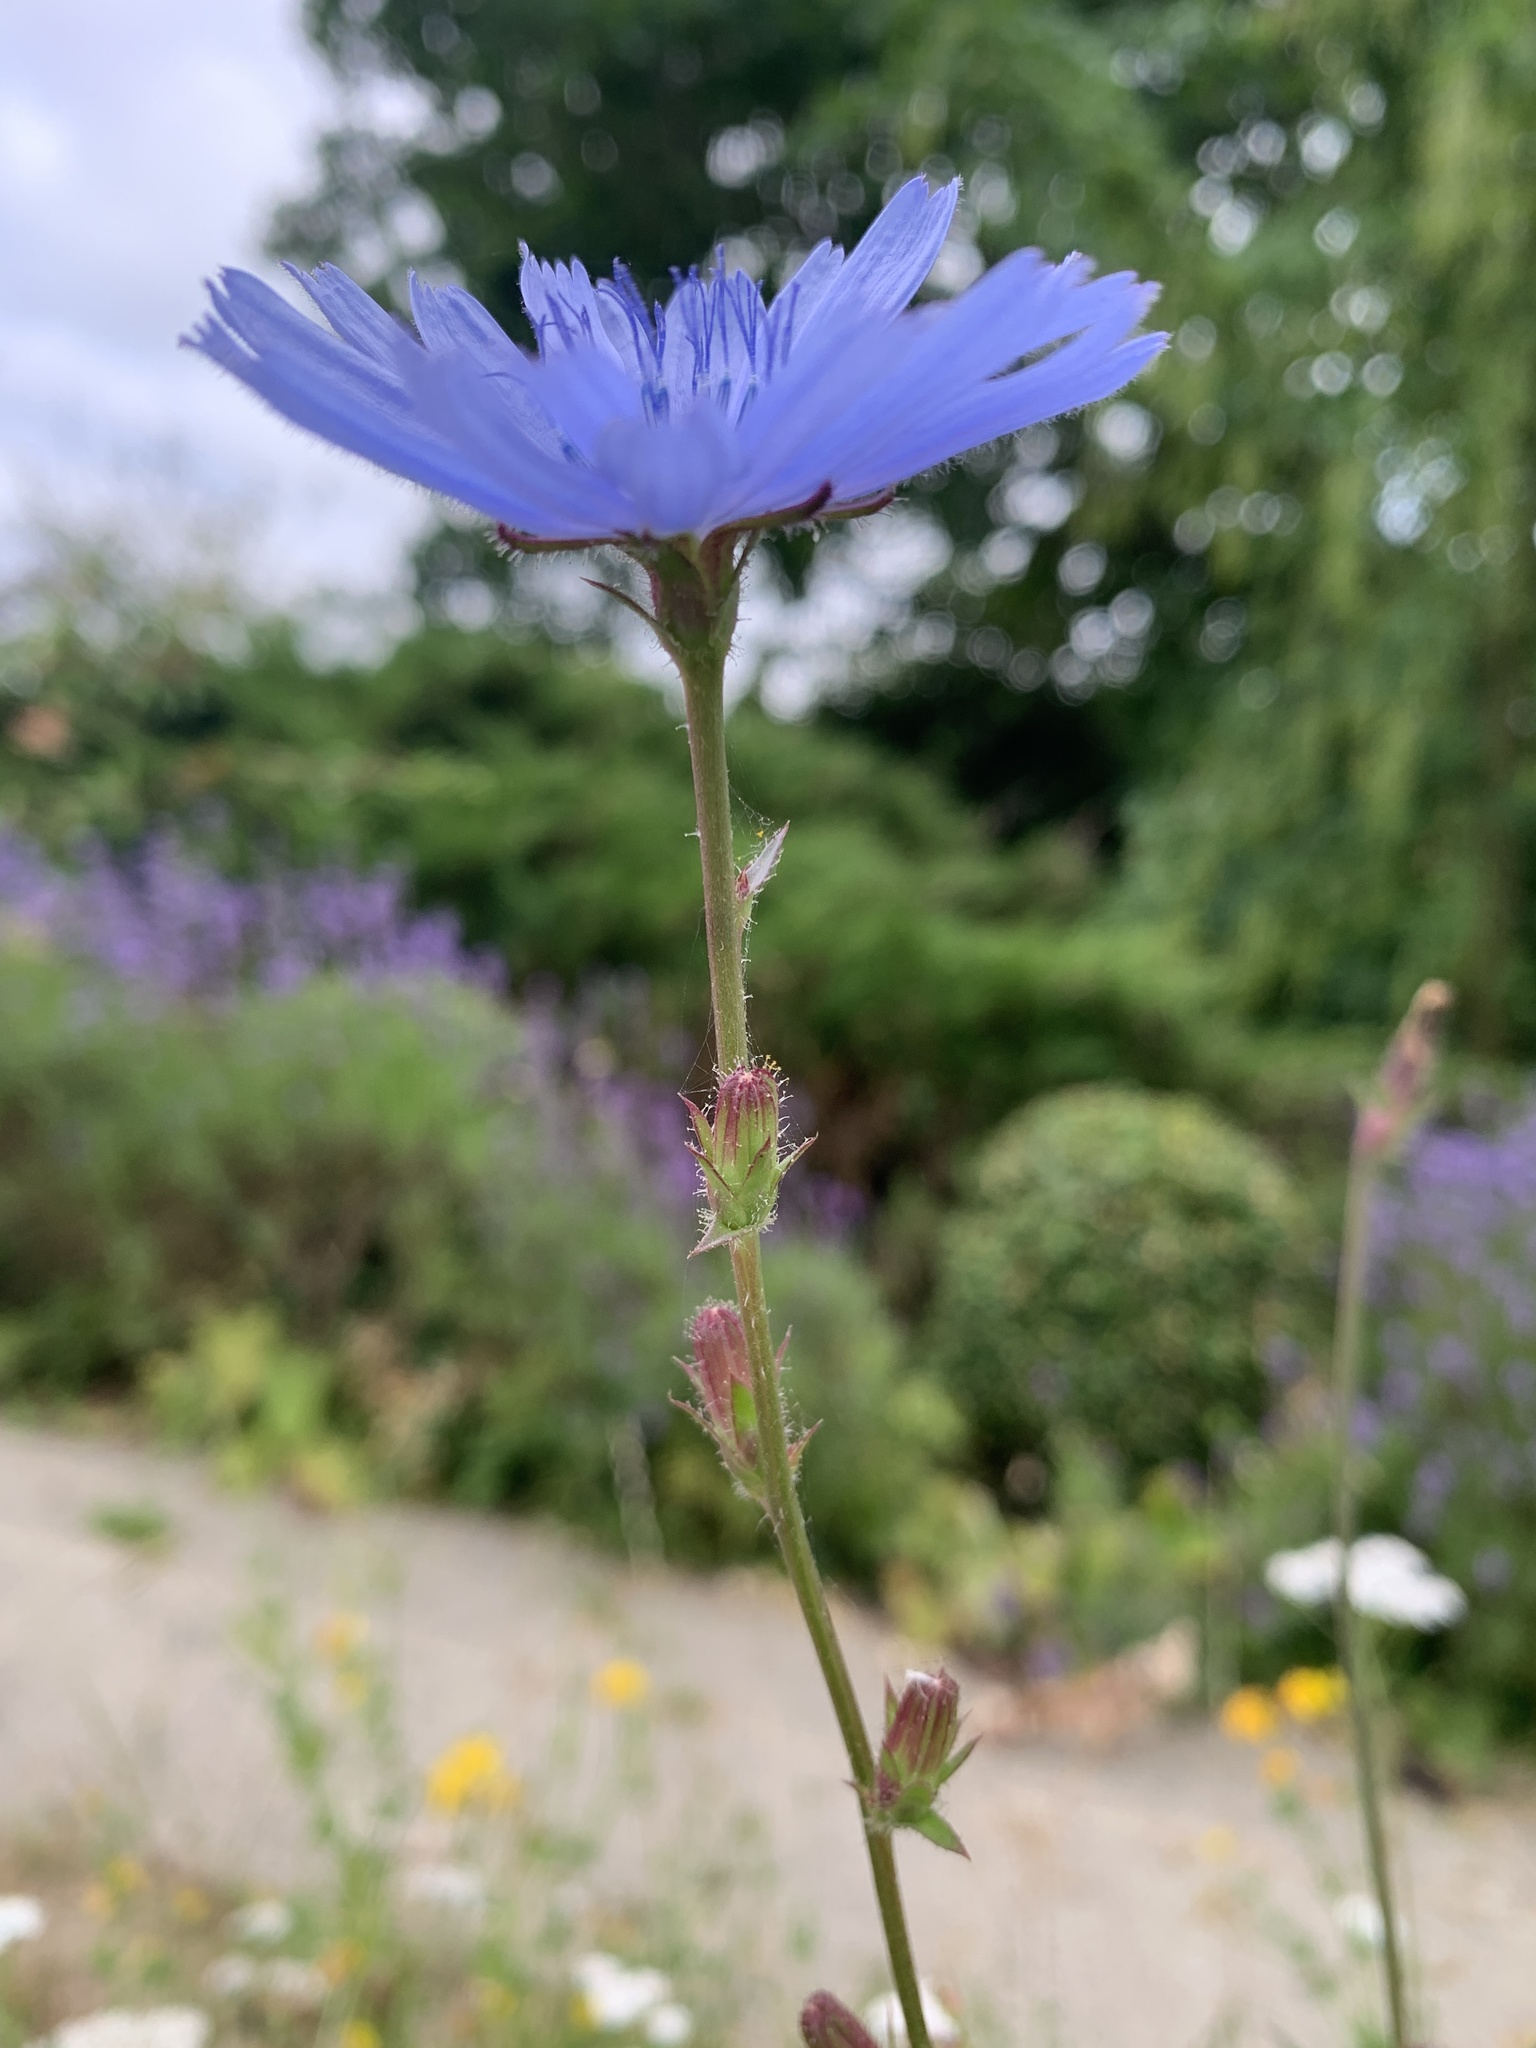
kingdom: Plantae
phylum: Tracheophyta
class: Magnoliopsida
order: Asterales
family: Asteraceae
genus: Cichorium
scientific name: Cichorium intybus
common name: Chicory
